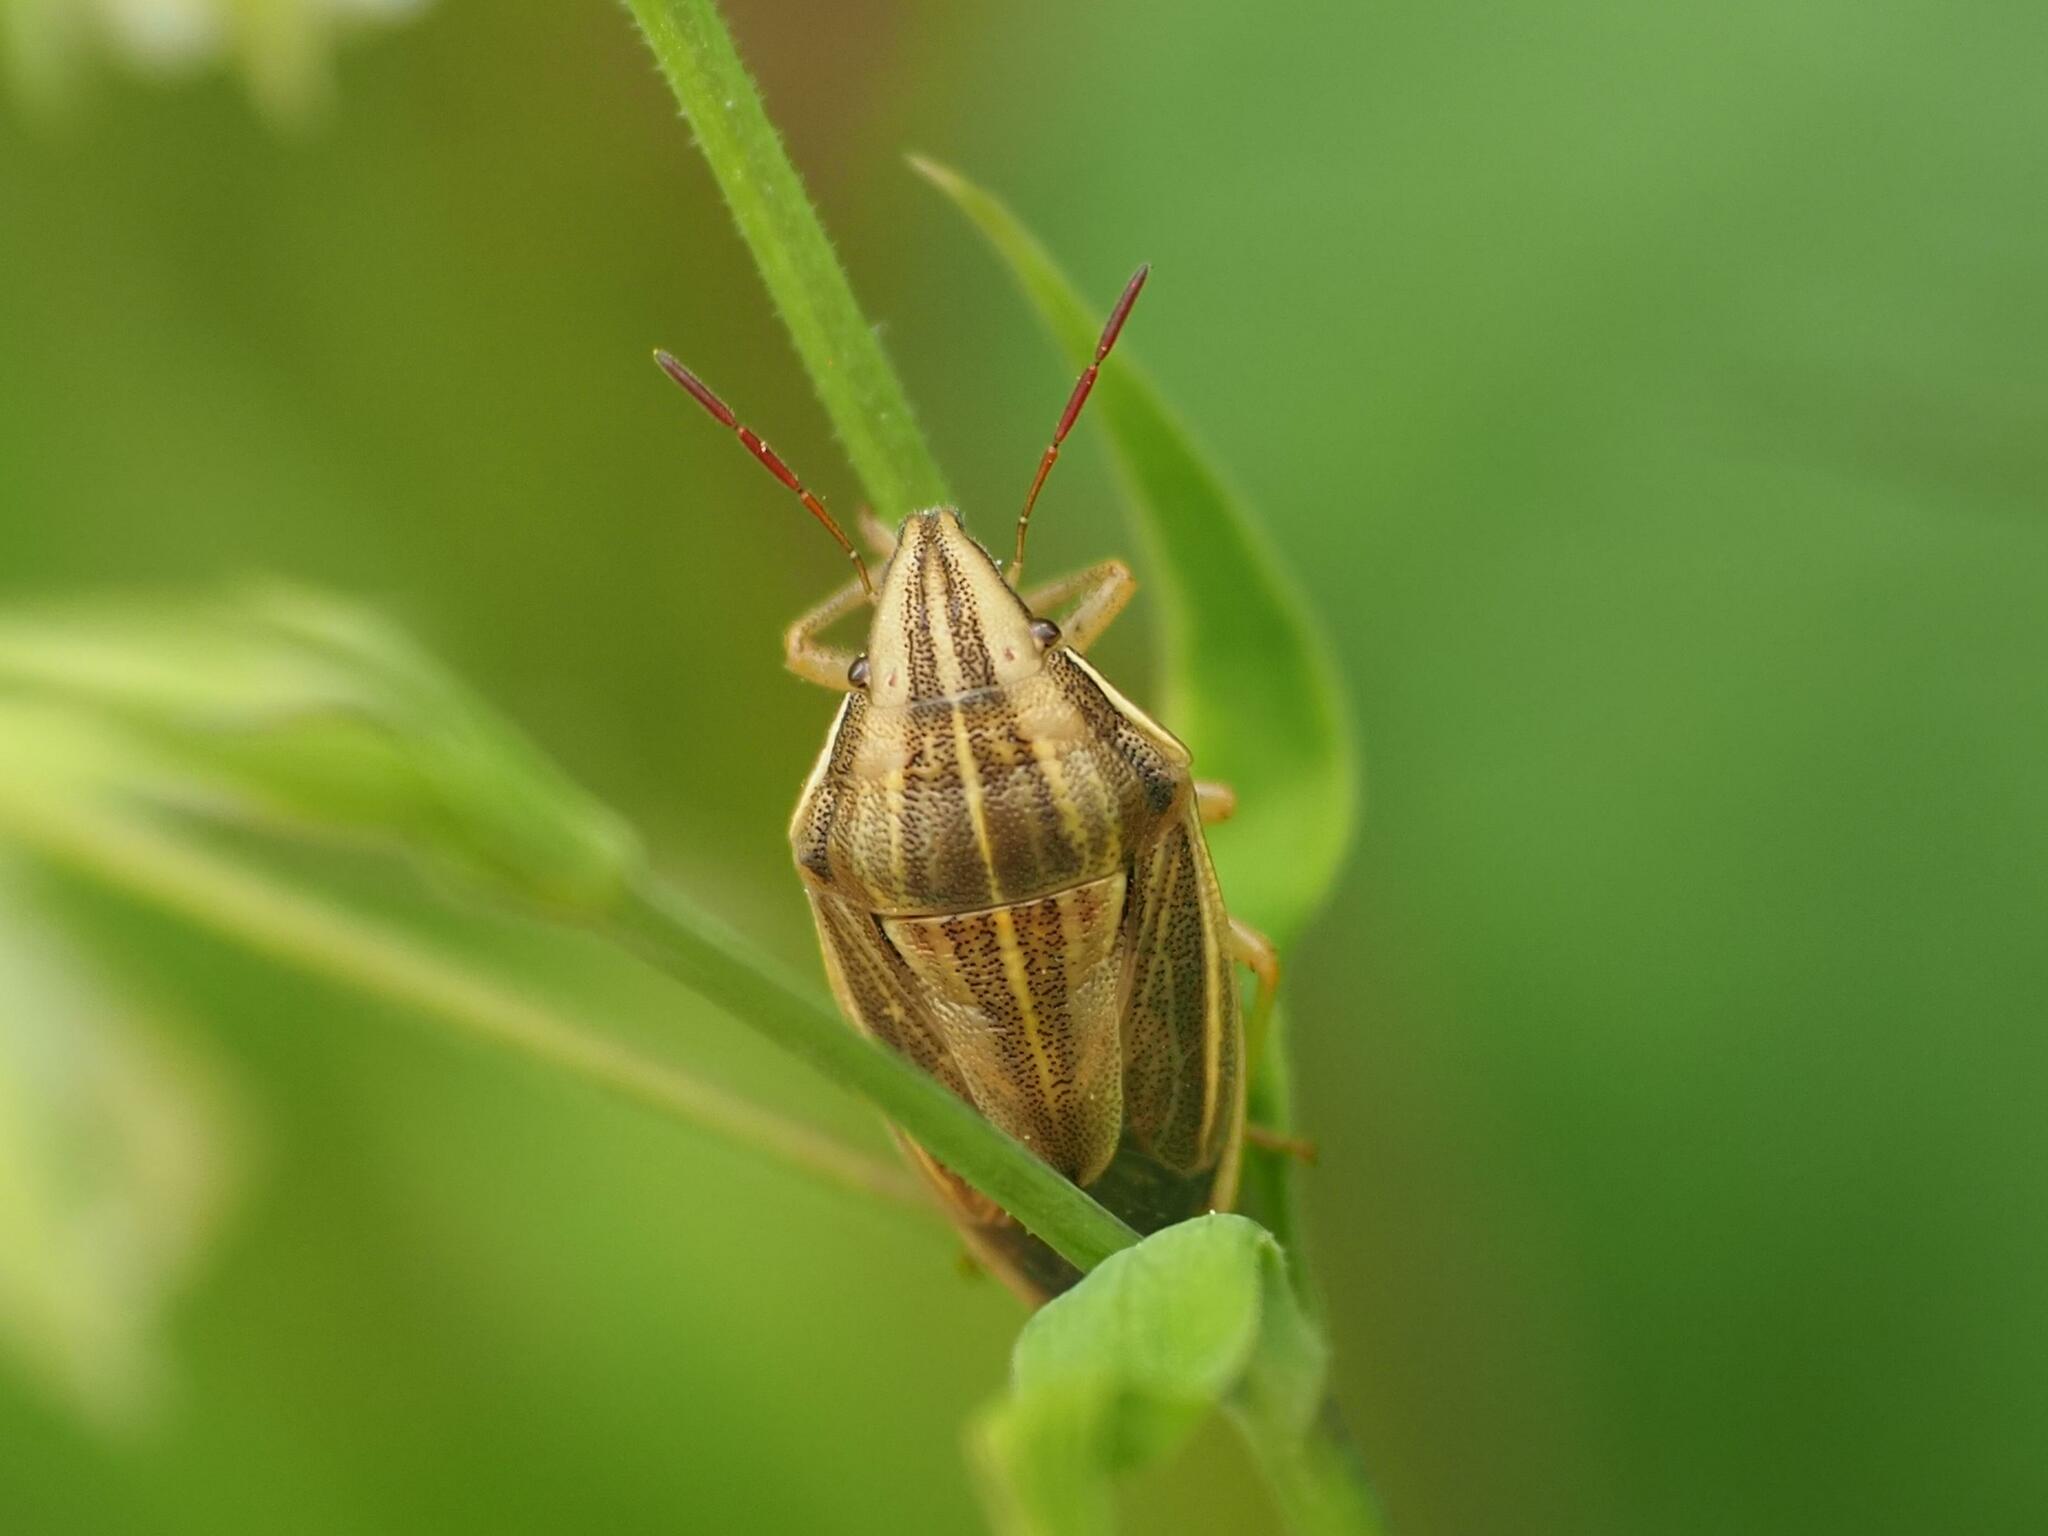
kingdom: Animalia
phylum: Arthropoda
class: Insecta
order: Hemiptera
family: Pentatomidae
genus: Aelia
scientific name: Aelia acuminata
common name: Bishop's mitre
